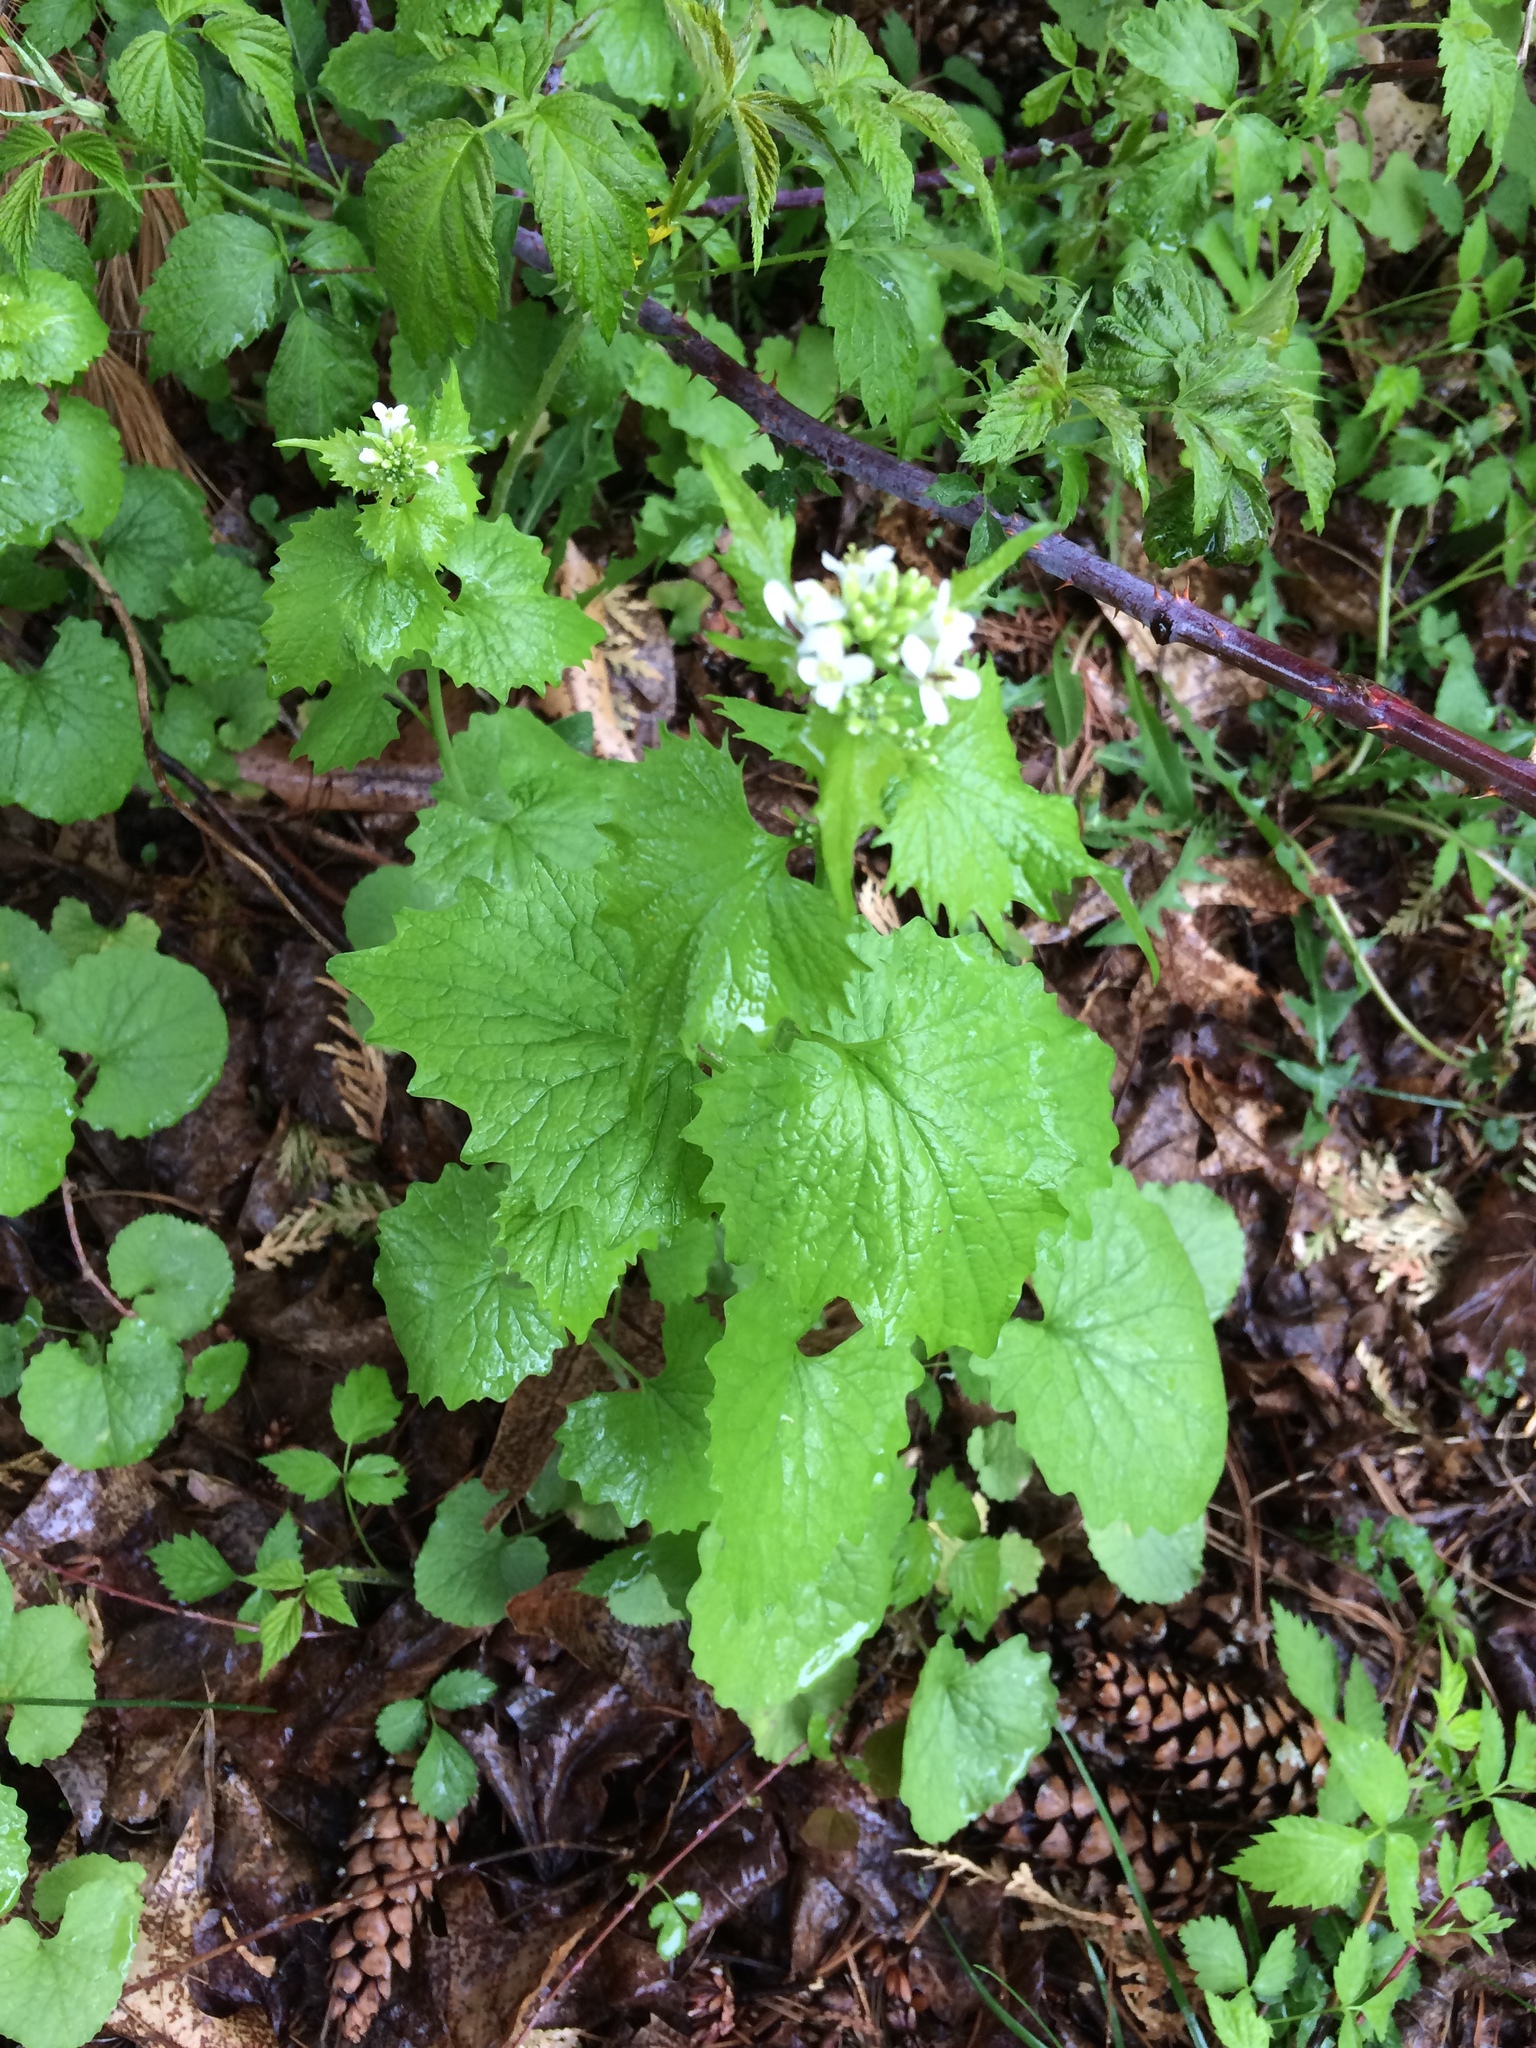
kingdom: Plantae
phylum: Tracheophyta
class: Magnoliopsida
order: Brassicales
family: Brassicaceae
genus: Alliaria
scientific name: Alliaria petiolata
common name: Garlic mustard
